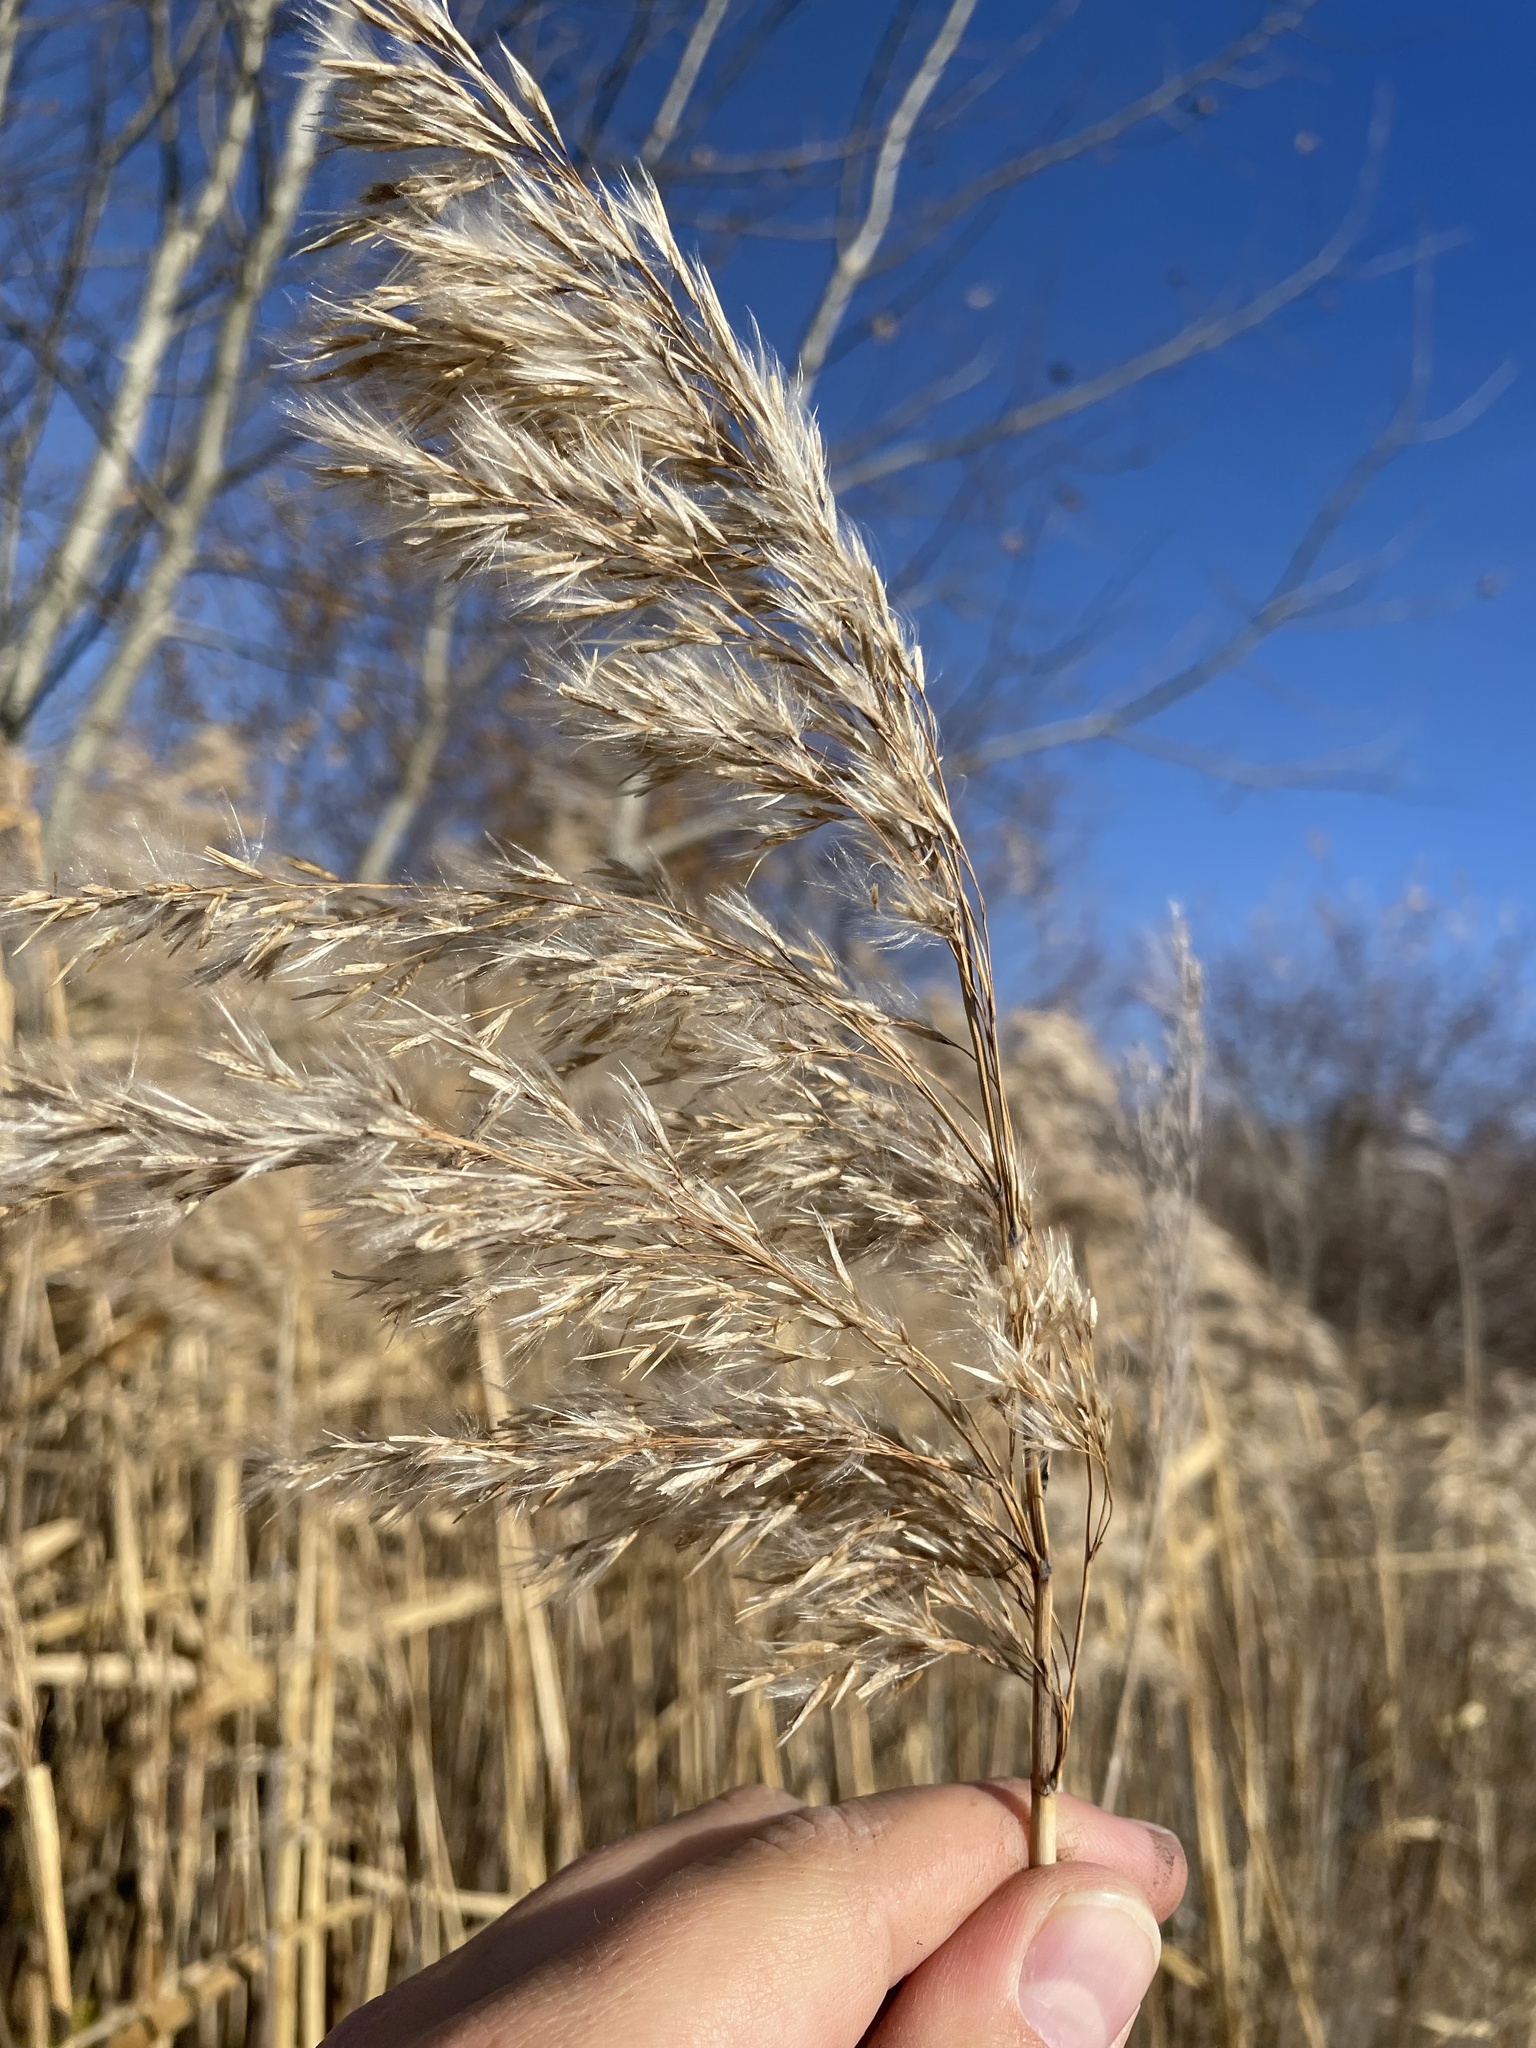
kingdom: Plantae
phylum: Tracheophyta
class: Liliopsida
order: Poales
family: Poaceae
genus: Phragmites
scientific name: Phragmites australis
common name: Common reed
